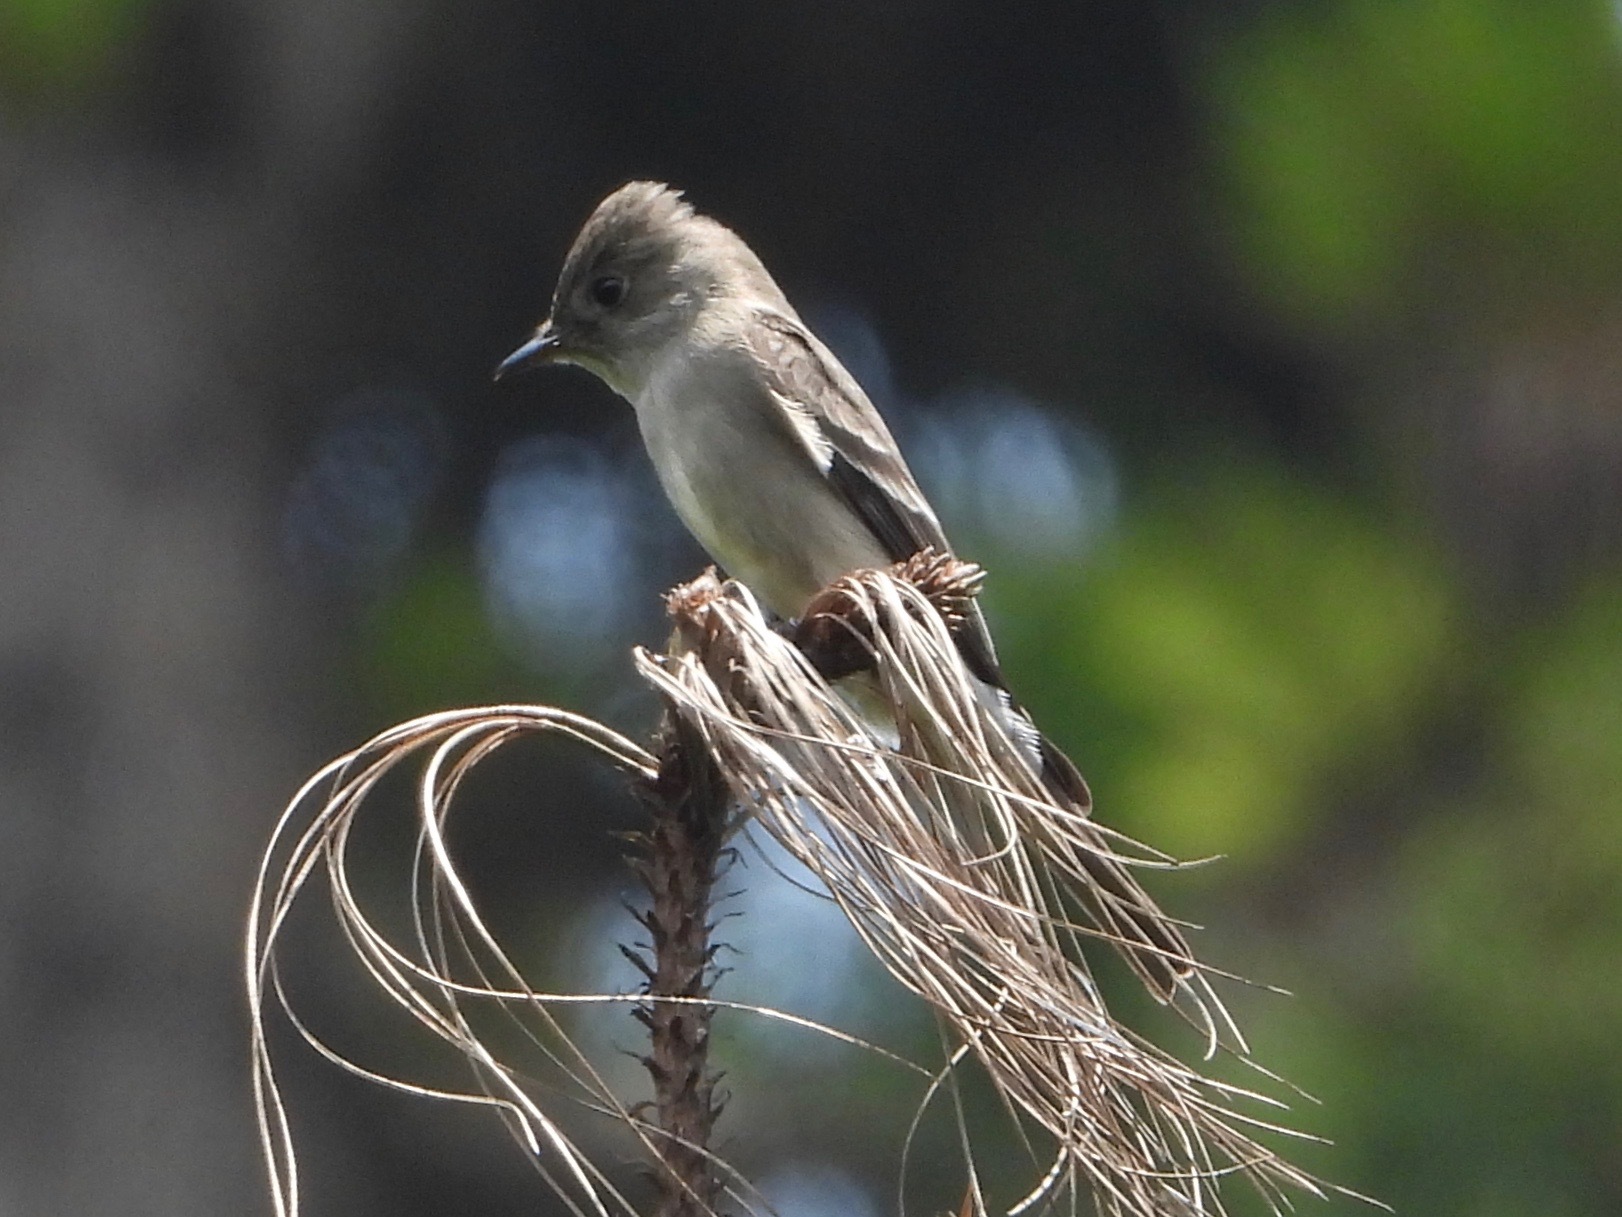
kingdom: Animalia
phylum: Chordata
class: Aves
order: Passeriformes
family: Tyrannidae
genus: Contopus
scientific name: Contopus sordidulus
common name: Western wood-pewee
